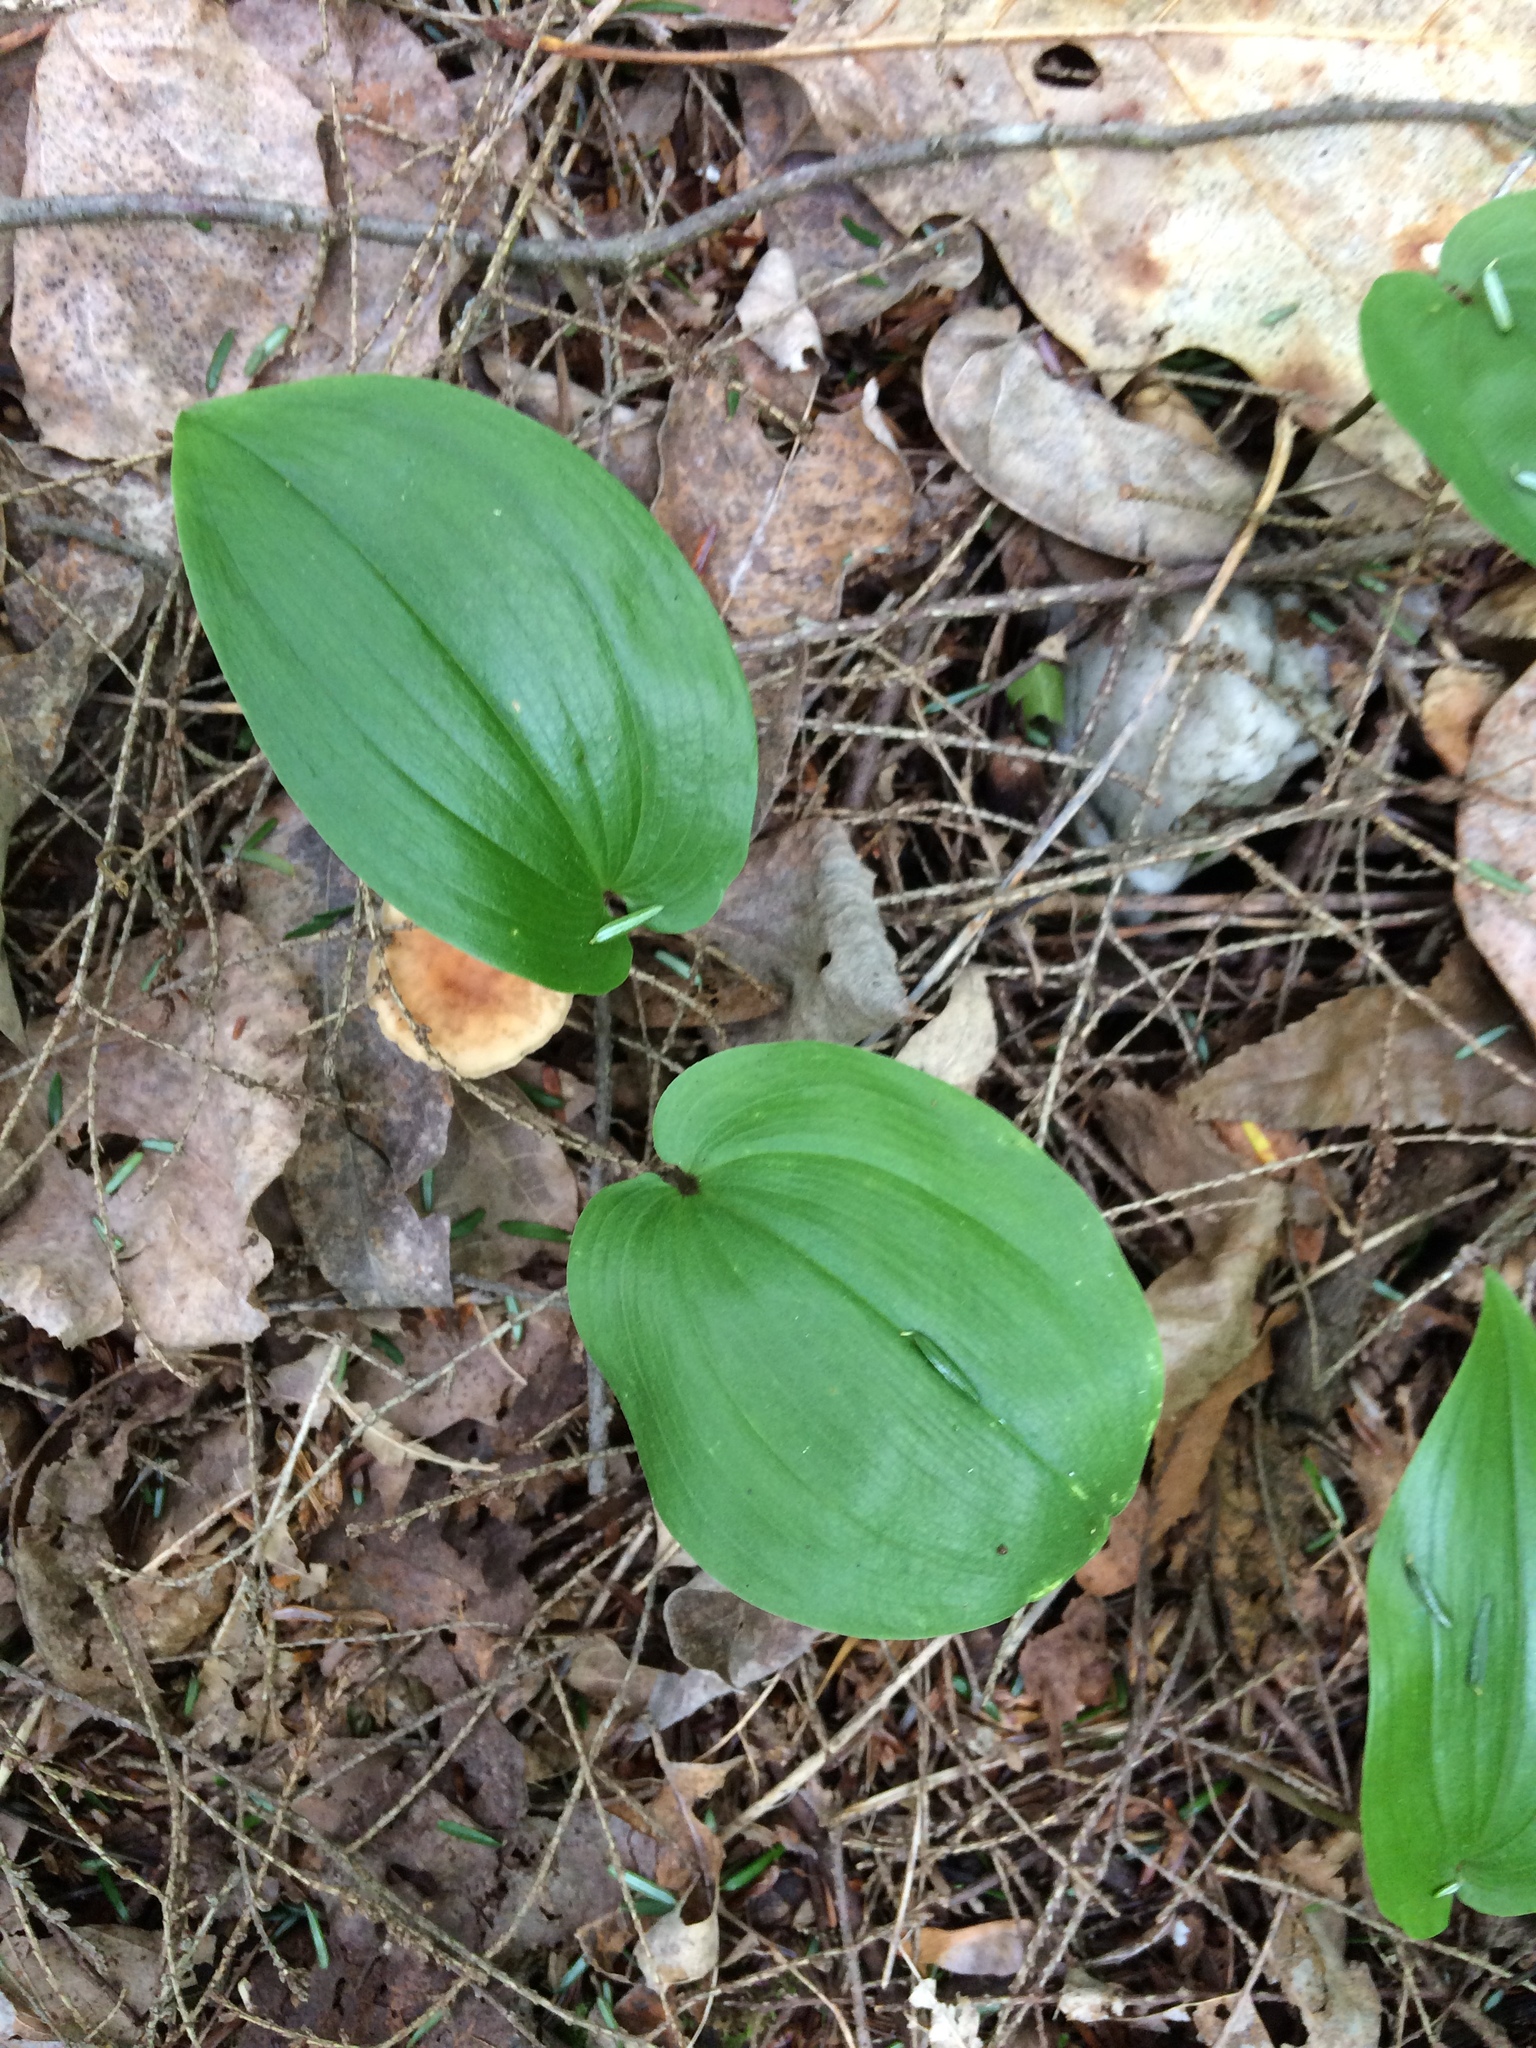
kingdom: Plantae
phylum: Tracheophyta
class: Liliopsida
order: Asparagales
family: Asparagaceae
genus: Maianthemum
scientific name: Maianthemum canadense
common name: False lily-of-the-valley
